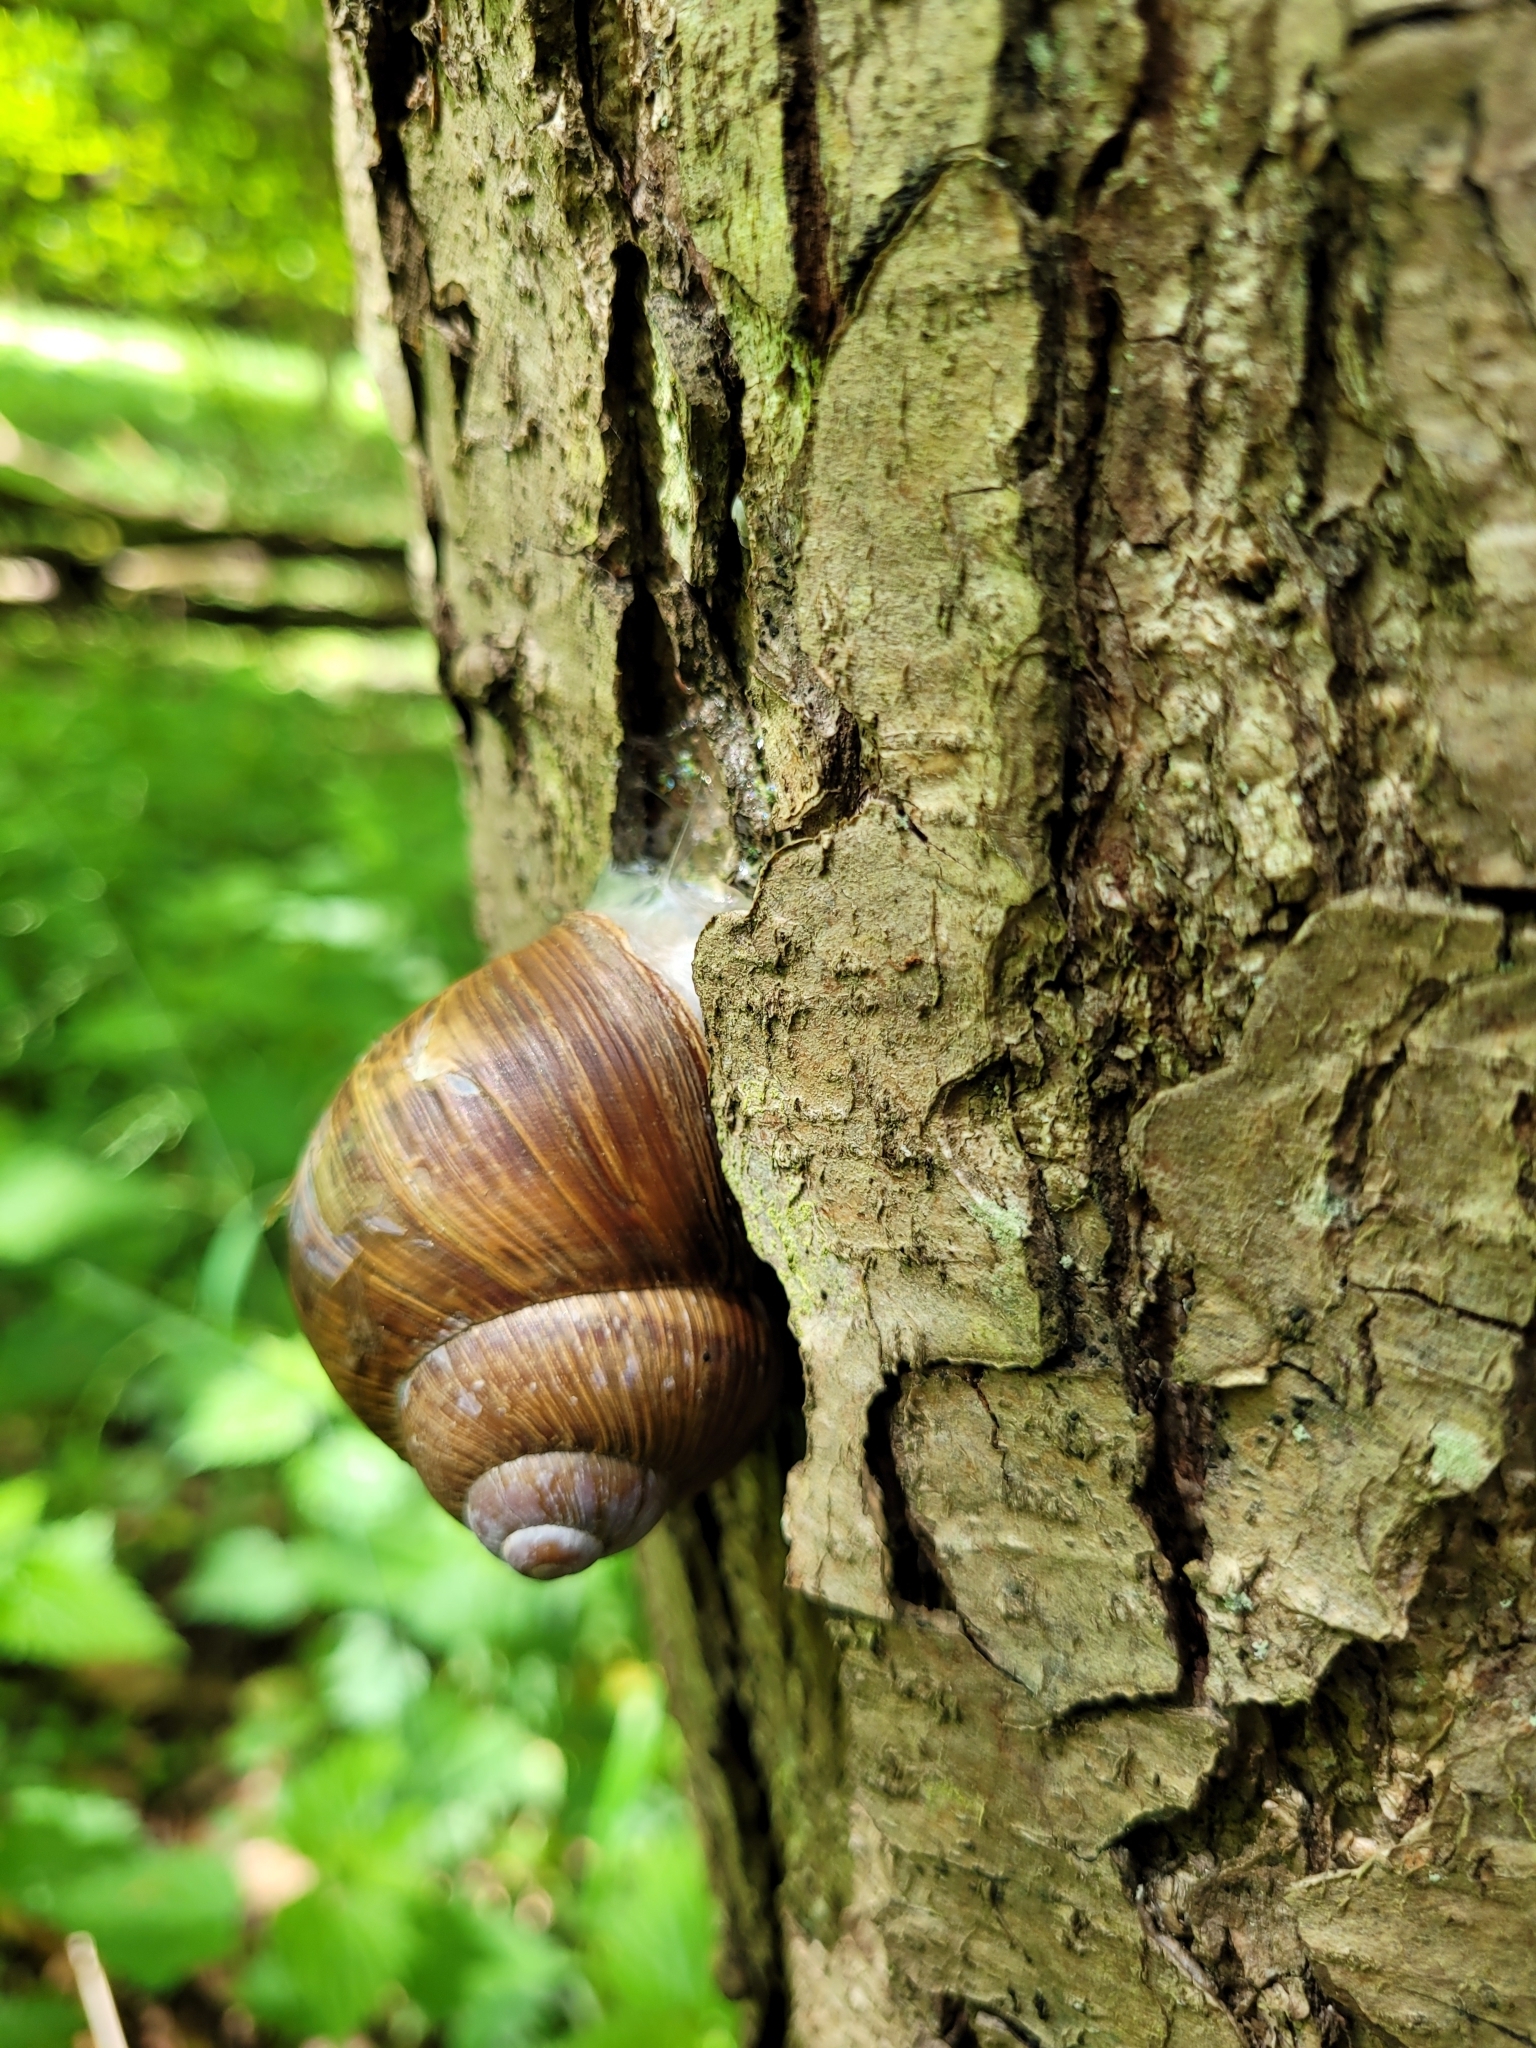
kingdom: Animalia
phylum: Mollusca
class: Gastropoda
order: Stylommatophora
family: Helicidae
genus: Helix
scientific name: Helix pomatia
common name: Roman snail
